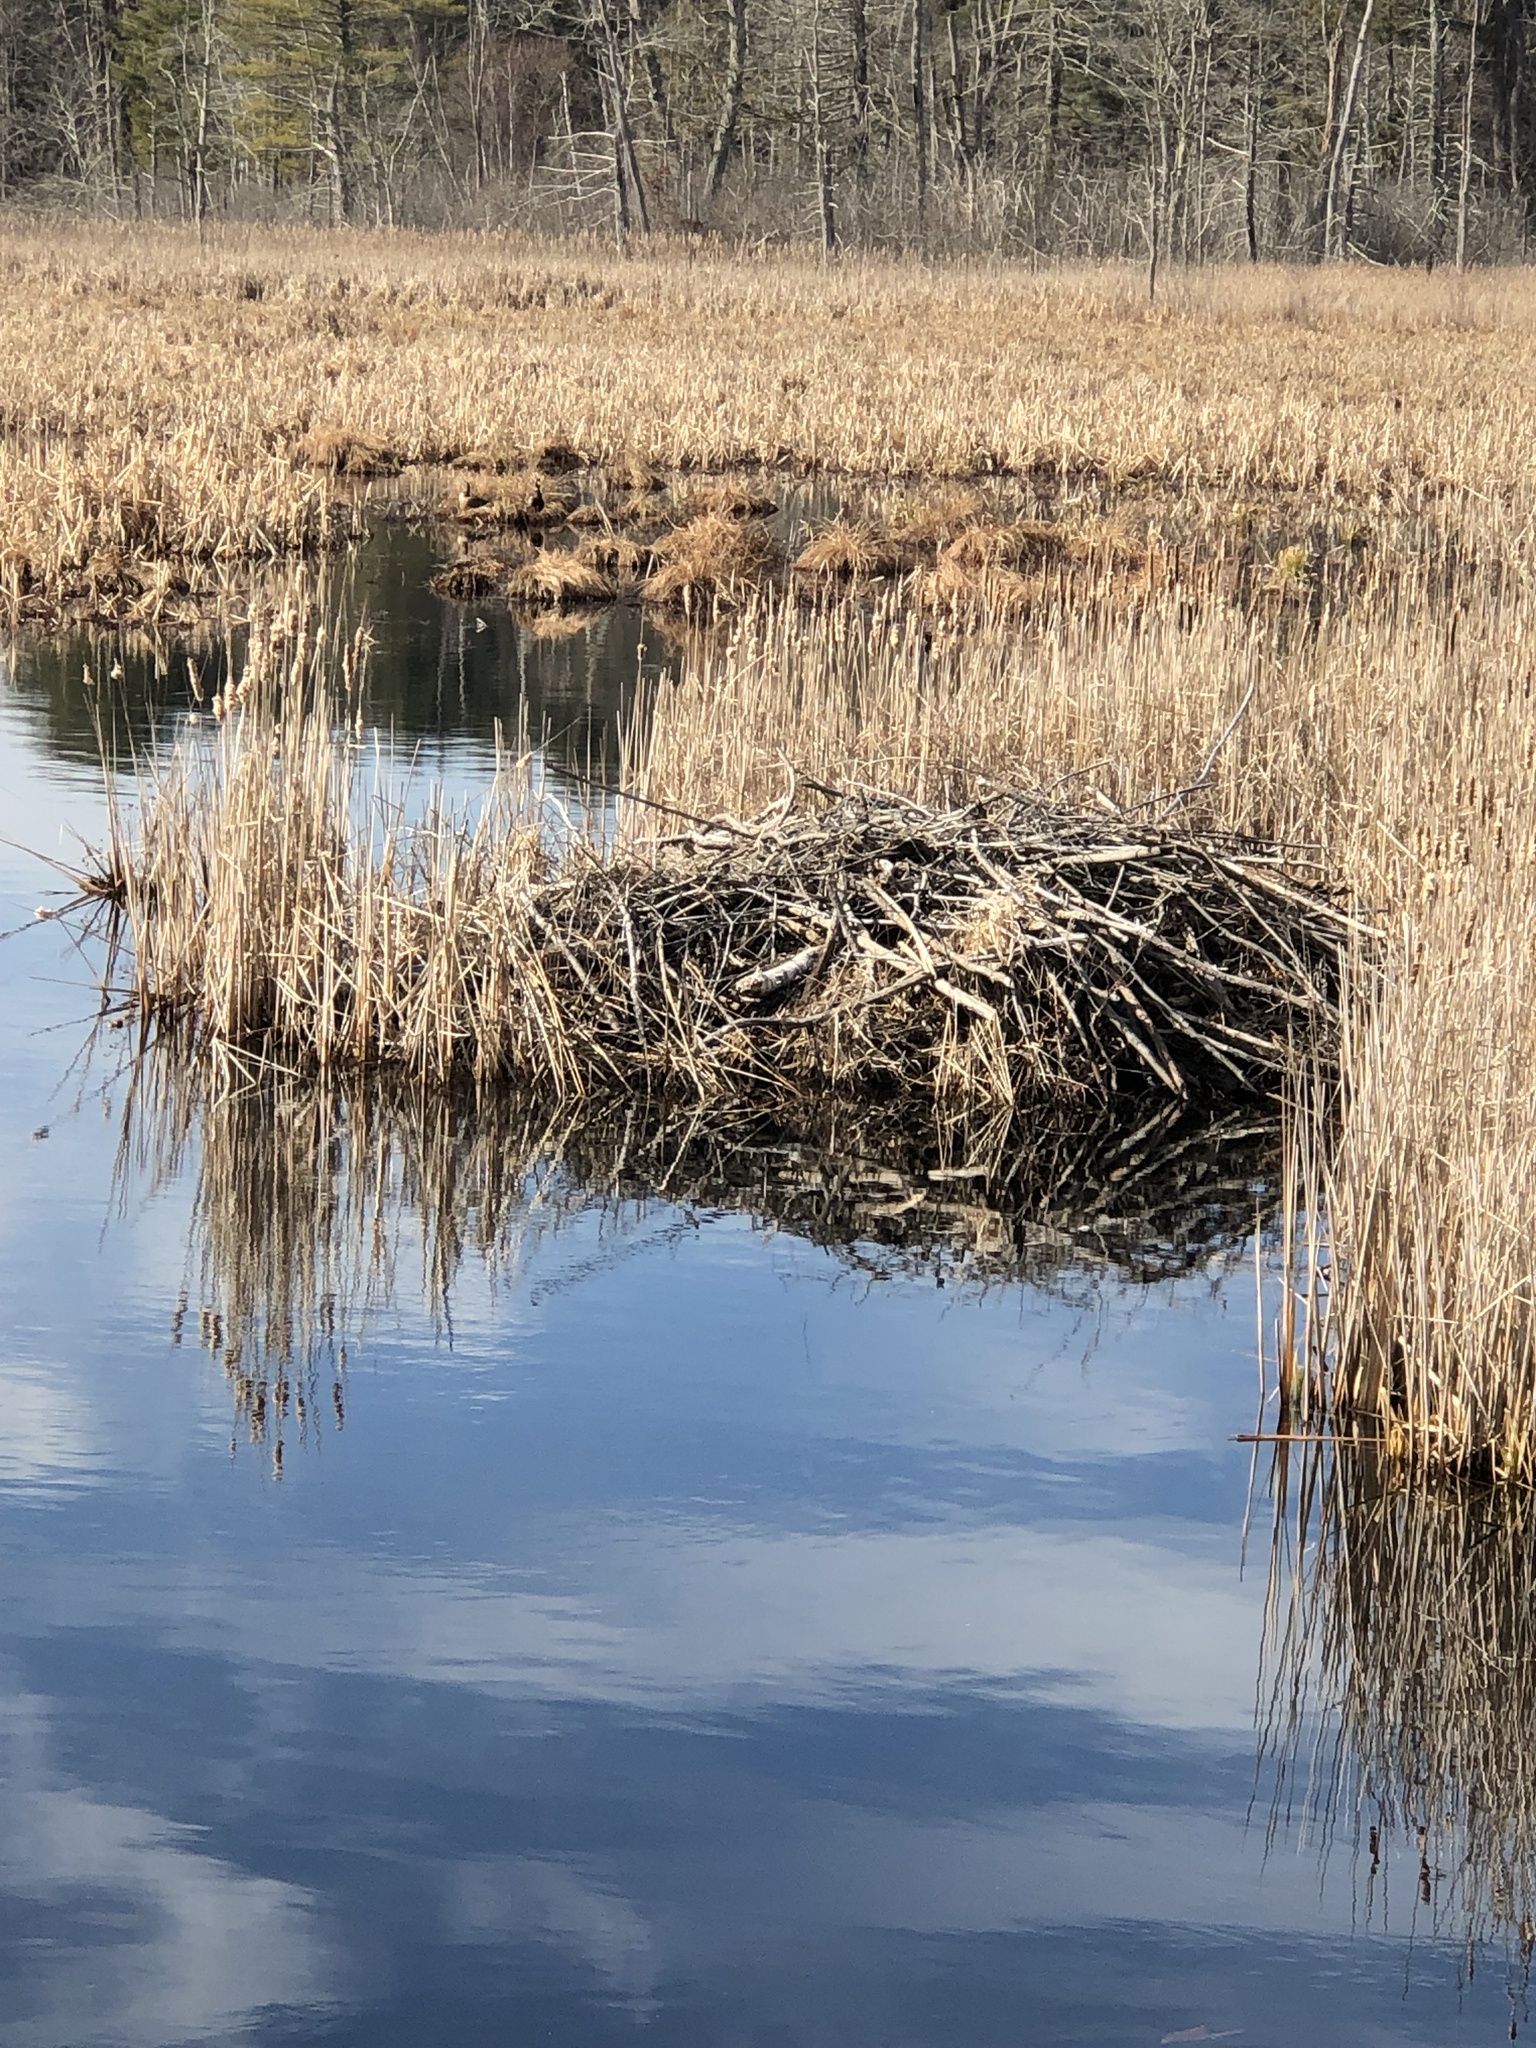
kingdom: Animalia
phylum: Chordata
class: Mammalia
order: Rodentia
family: Castoridae
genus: Castor
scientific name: Castor canadensis
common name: American beaver
